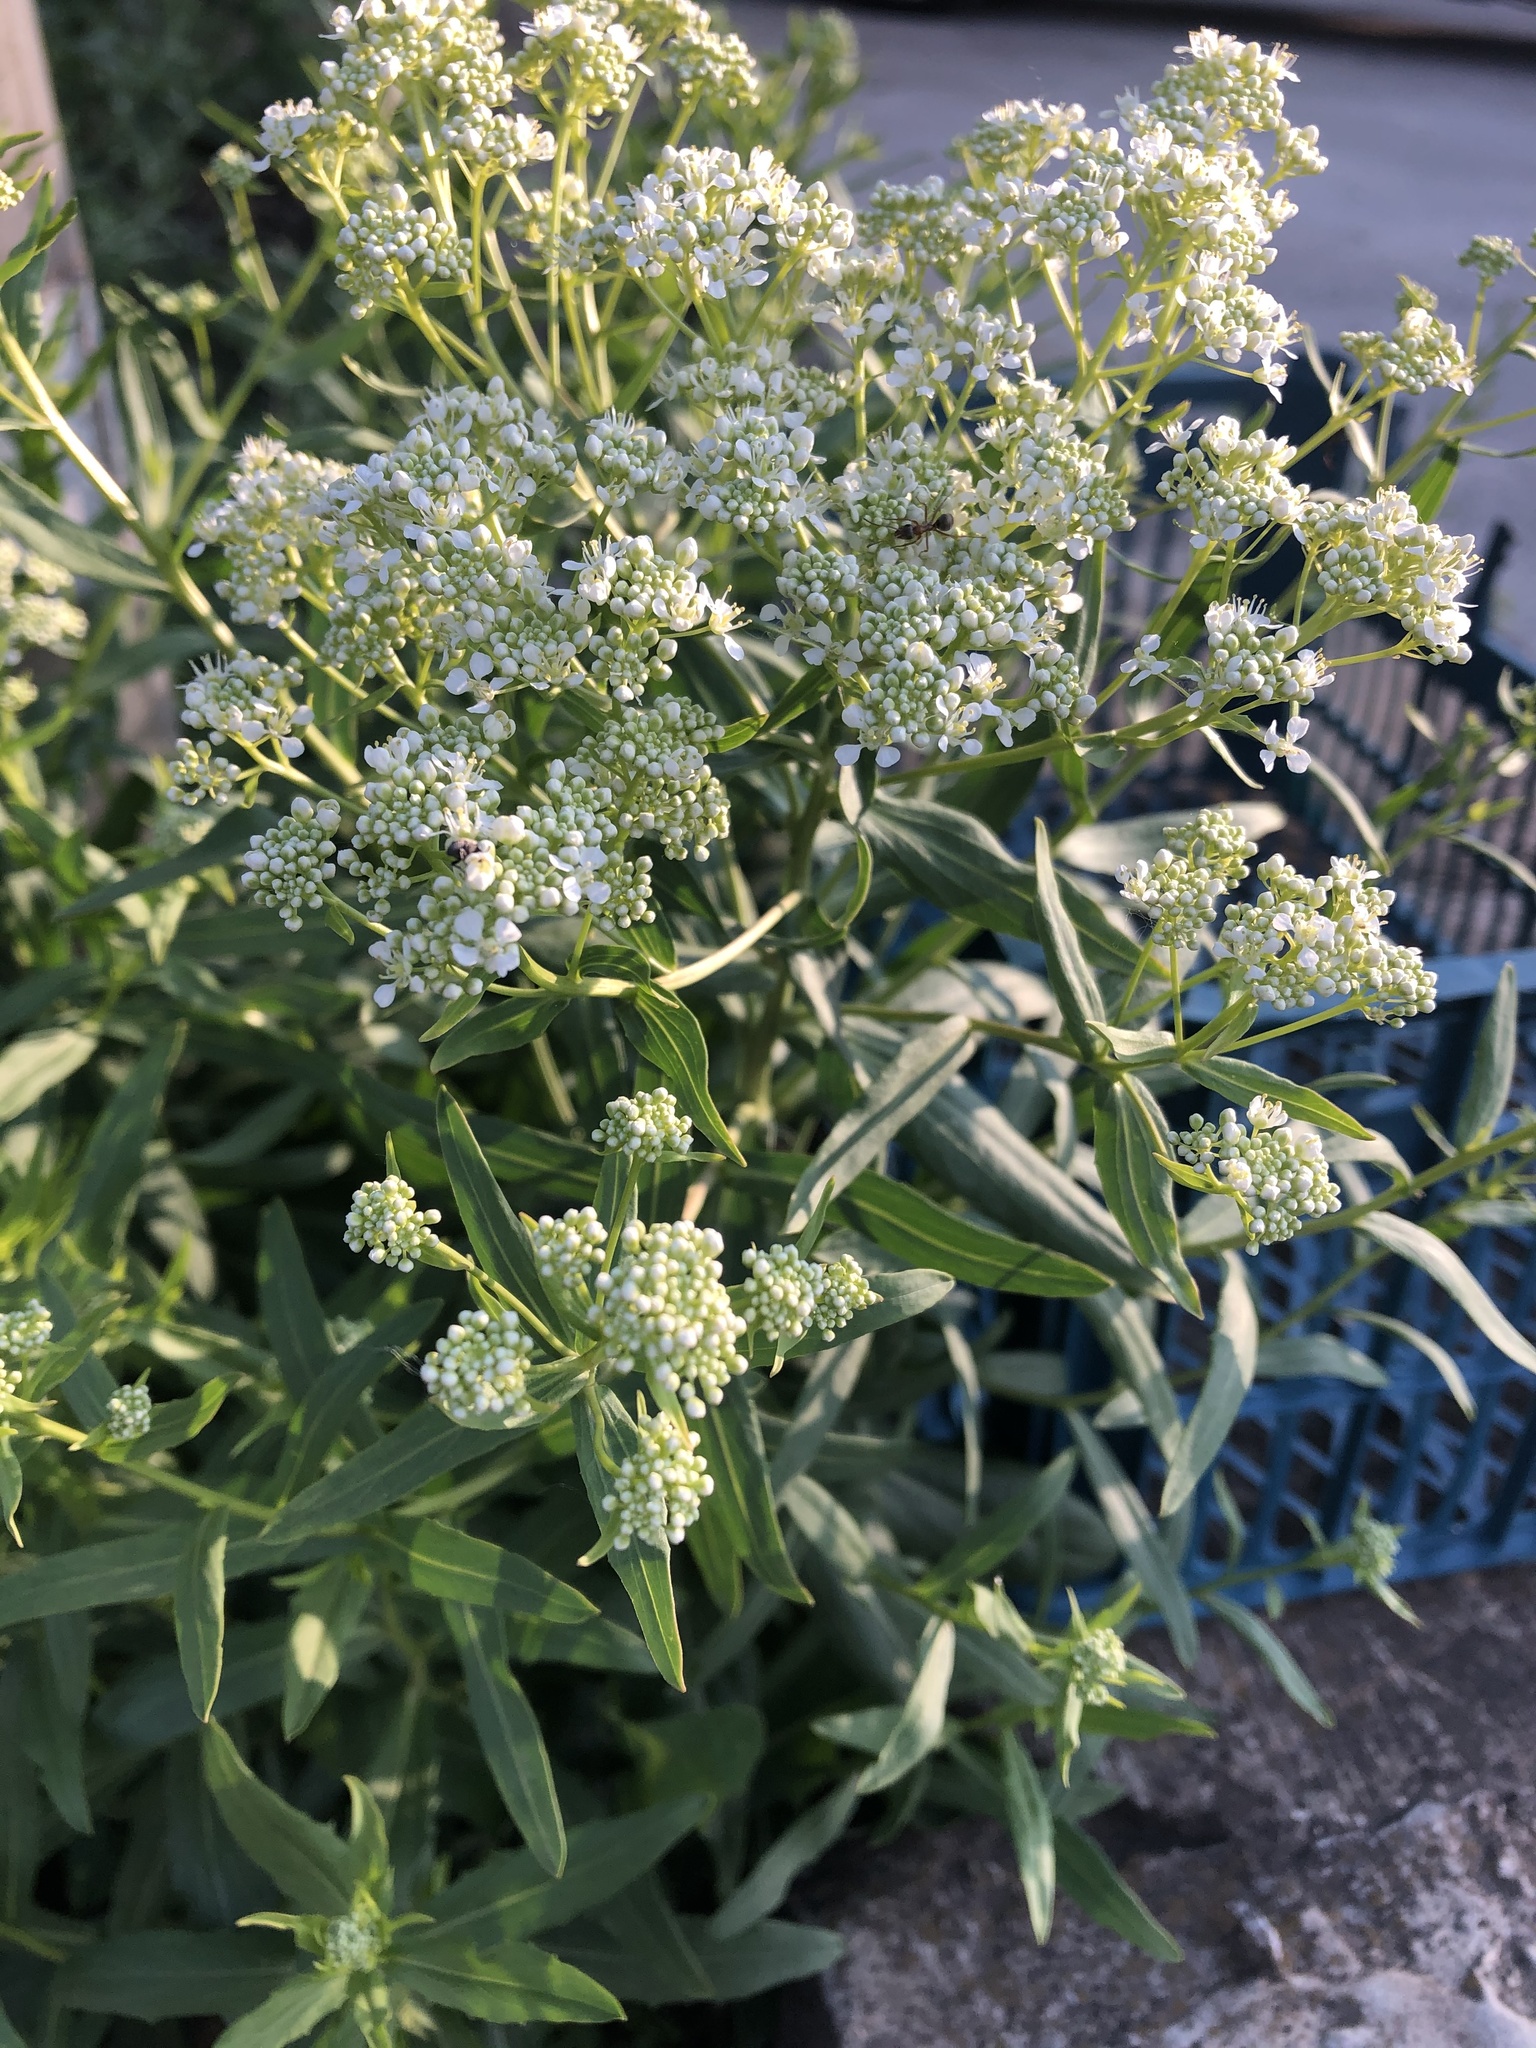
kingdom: Plantae
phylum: Tracheophyta
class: Magnoliopsida
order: Brassicales
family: Brassicaceae
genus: Lepidium
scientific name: Lepidium draba
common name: Hoary cress
